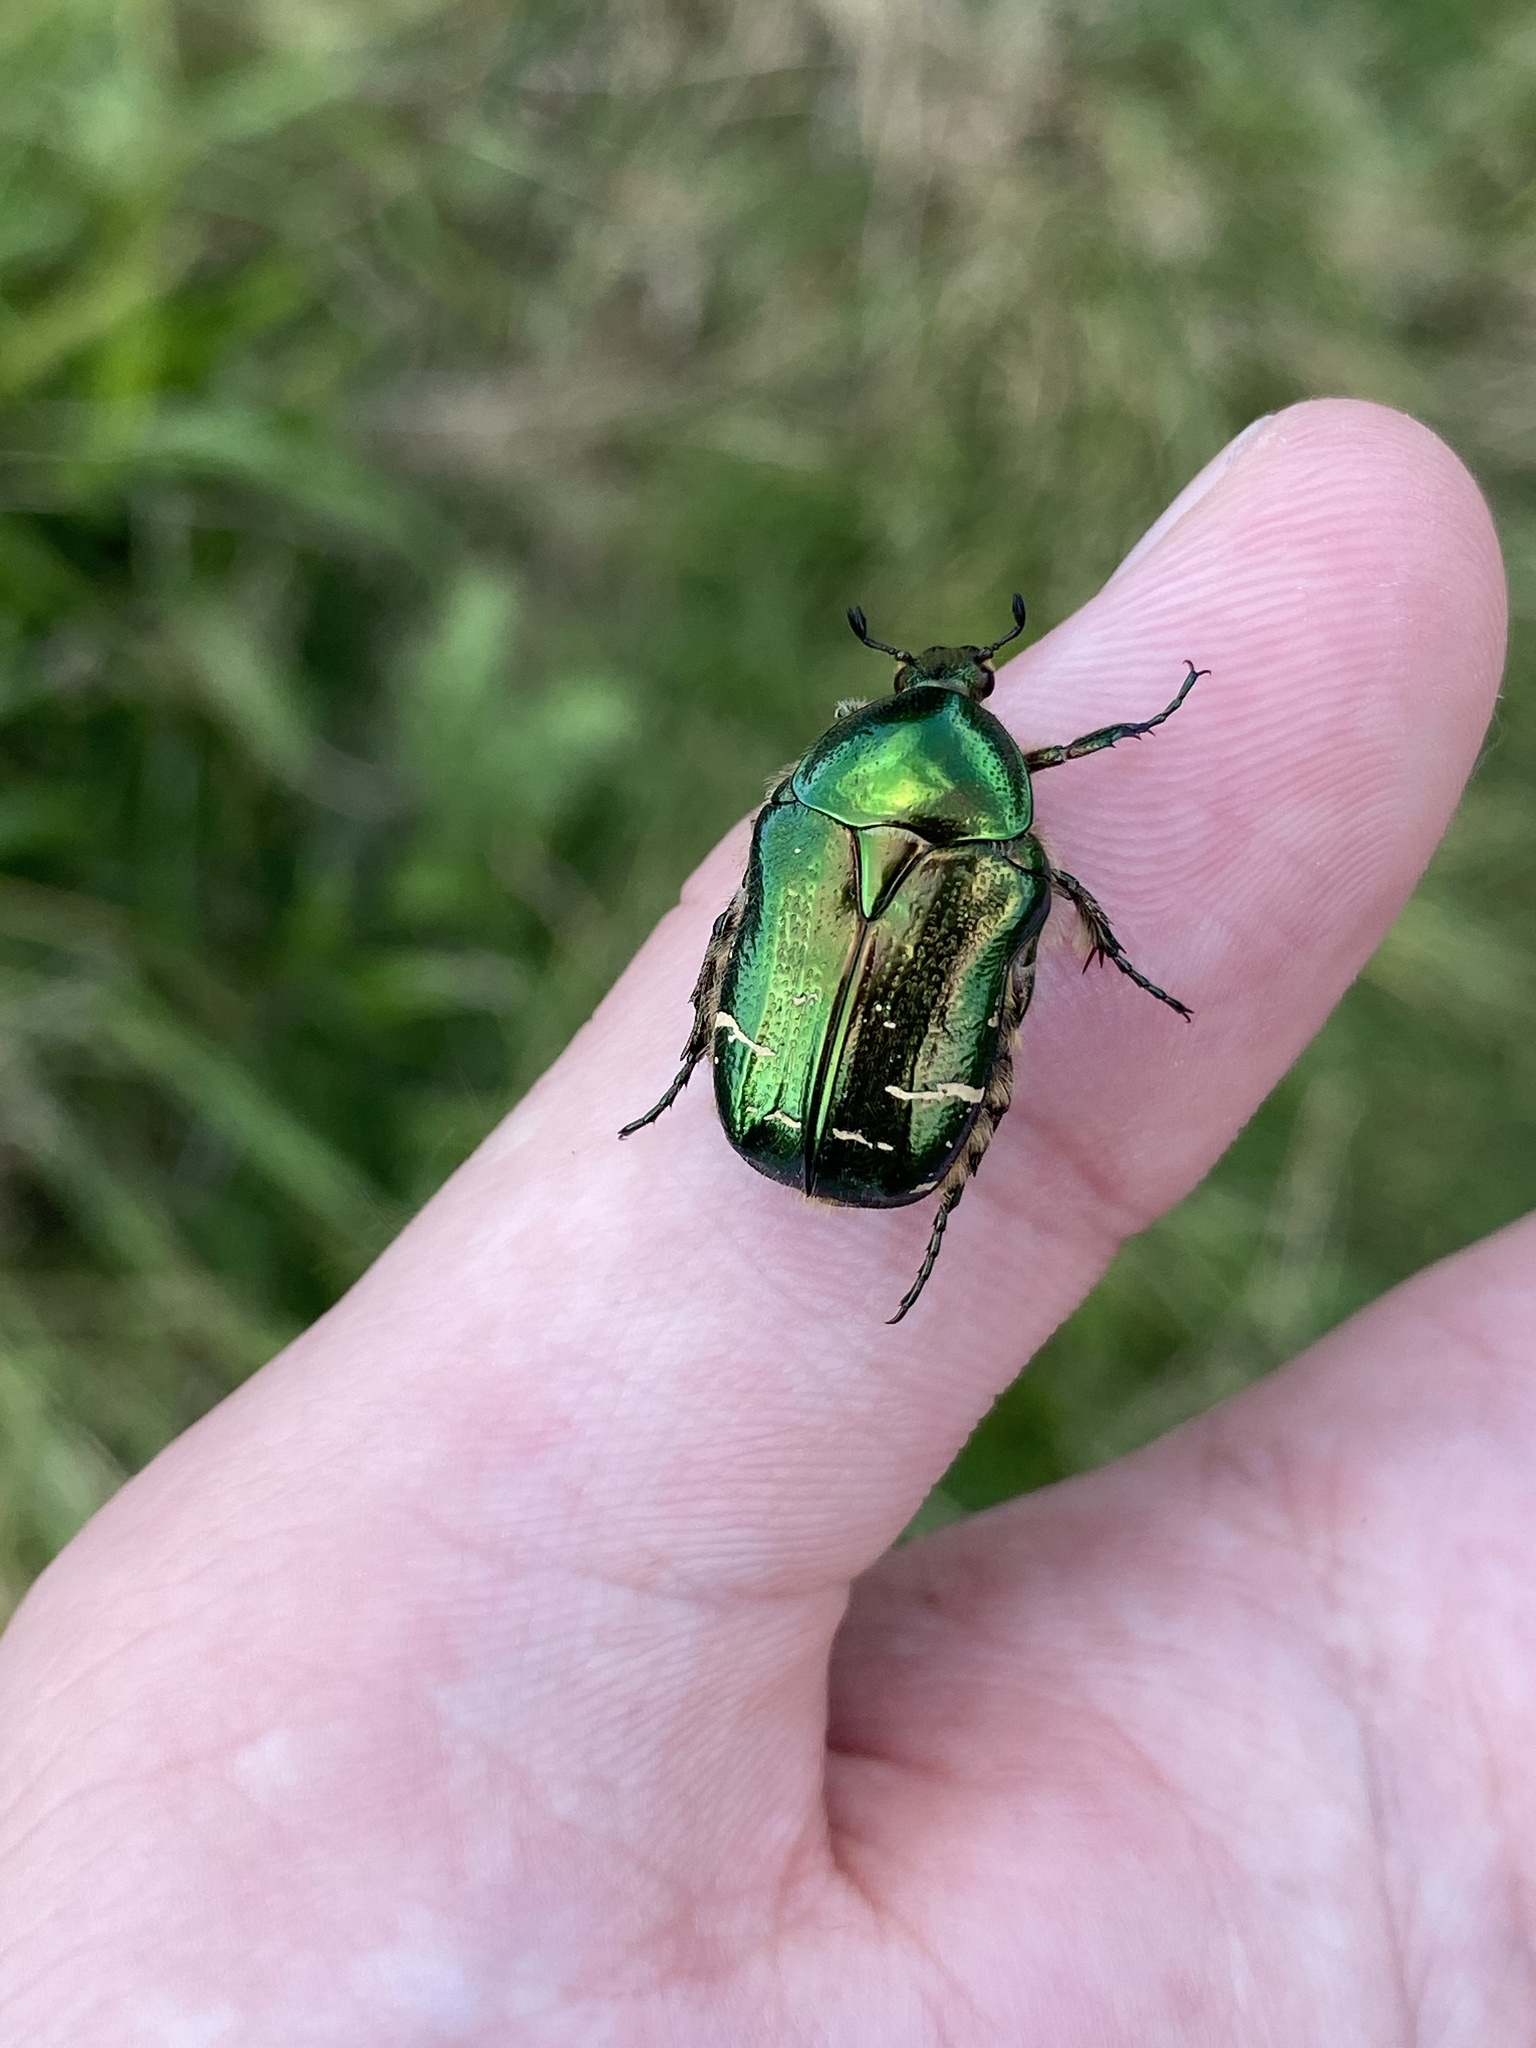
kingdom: Animalia
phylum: Arthropoda
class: Insecta
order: Coleoptera
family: Scarabaeidae
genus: Cetonia
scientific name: Cetonia aurata
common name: Rose chafer
